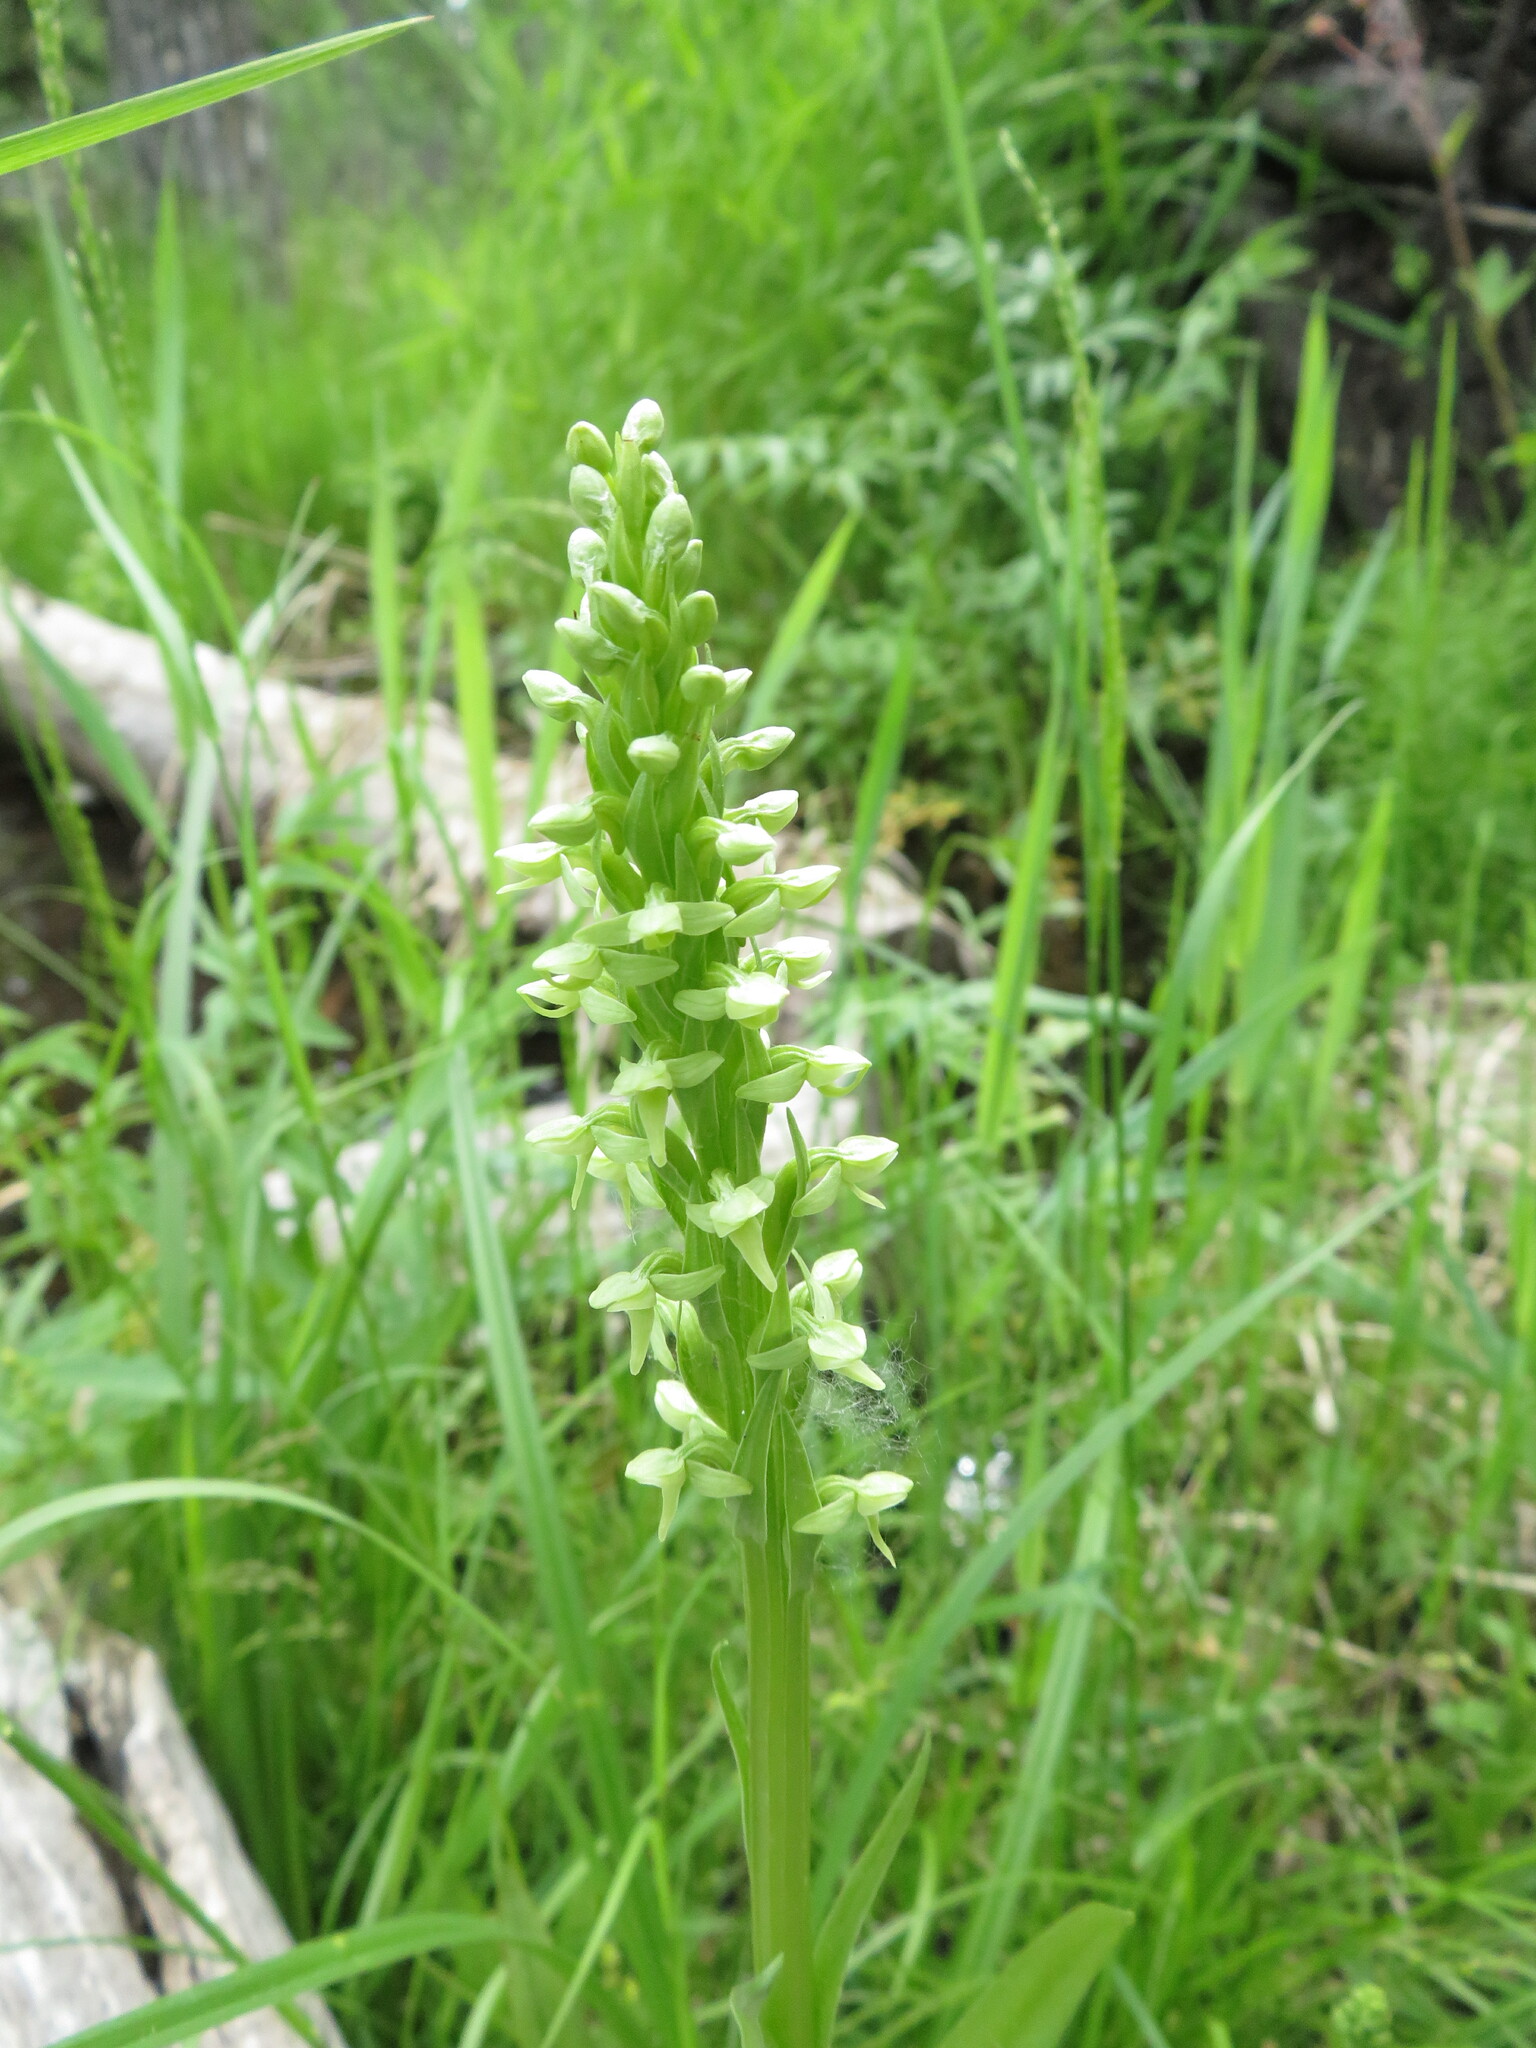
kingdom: Plantae
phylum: Tracheophyta
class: Liliopsida
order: Asparagales
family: Orchidaceae
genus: Platanthera
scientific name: Platanthera huronensis
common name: Fragrant green orchid
